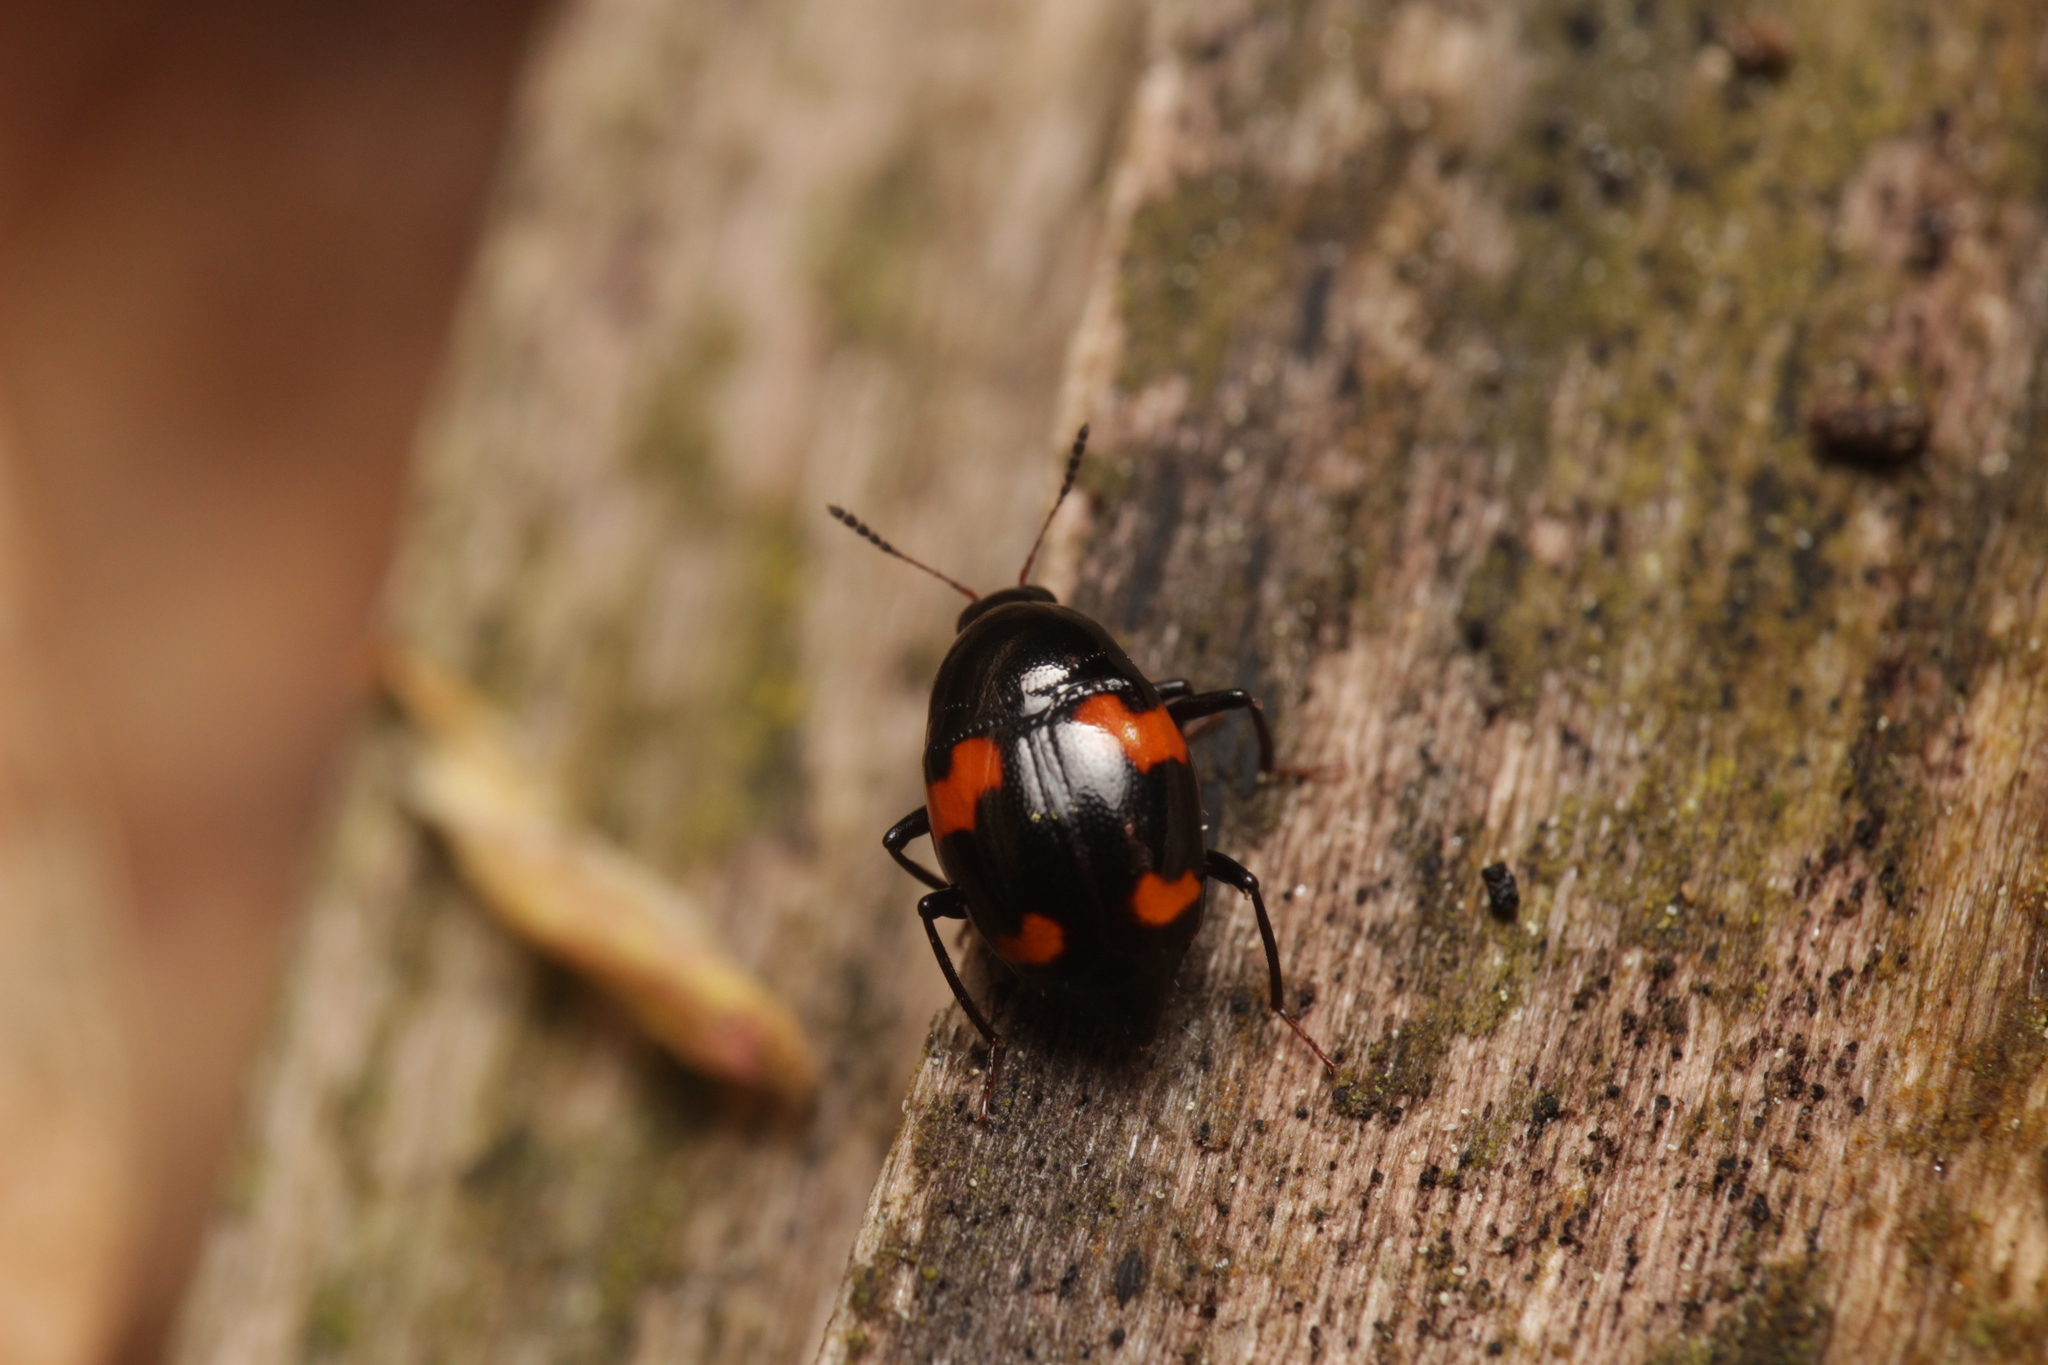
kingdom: Animalia
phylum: Arthropoda
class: Insecta
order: Coleoptera
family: Staphylinidae
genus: Scaphidium
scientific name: Scaphidium quadrimaculatum
